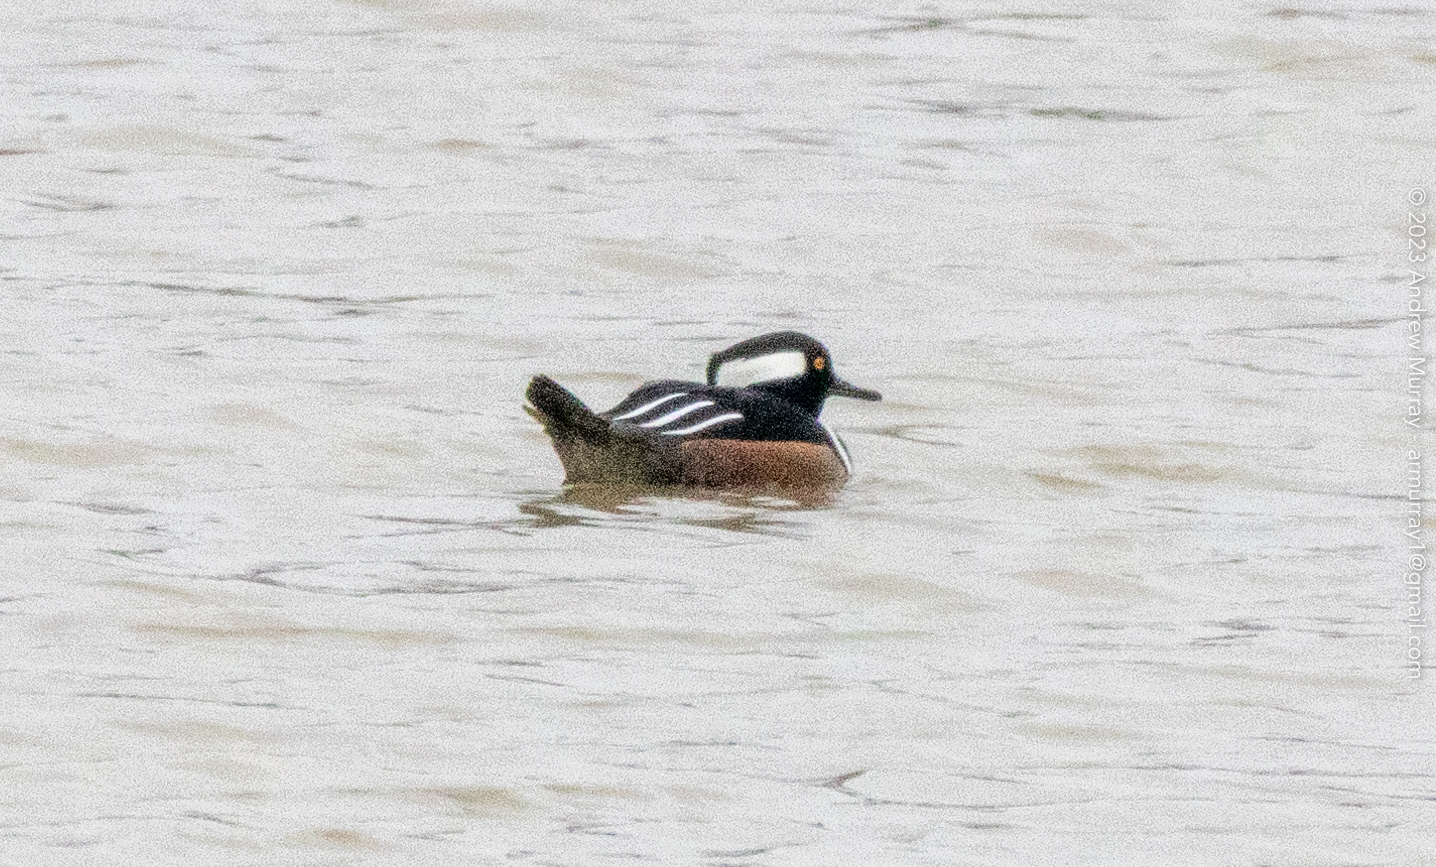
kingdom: Animalia
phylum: Chordata
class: Aves
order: Anseriformes
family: Anatidae
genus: Lophodytes
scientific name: Lophodytes cucullatus
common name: Hooded merganser
